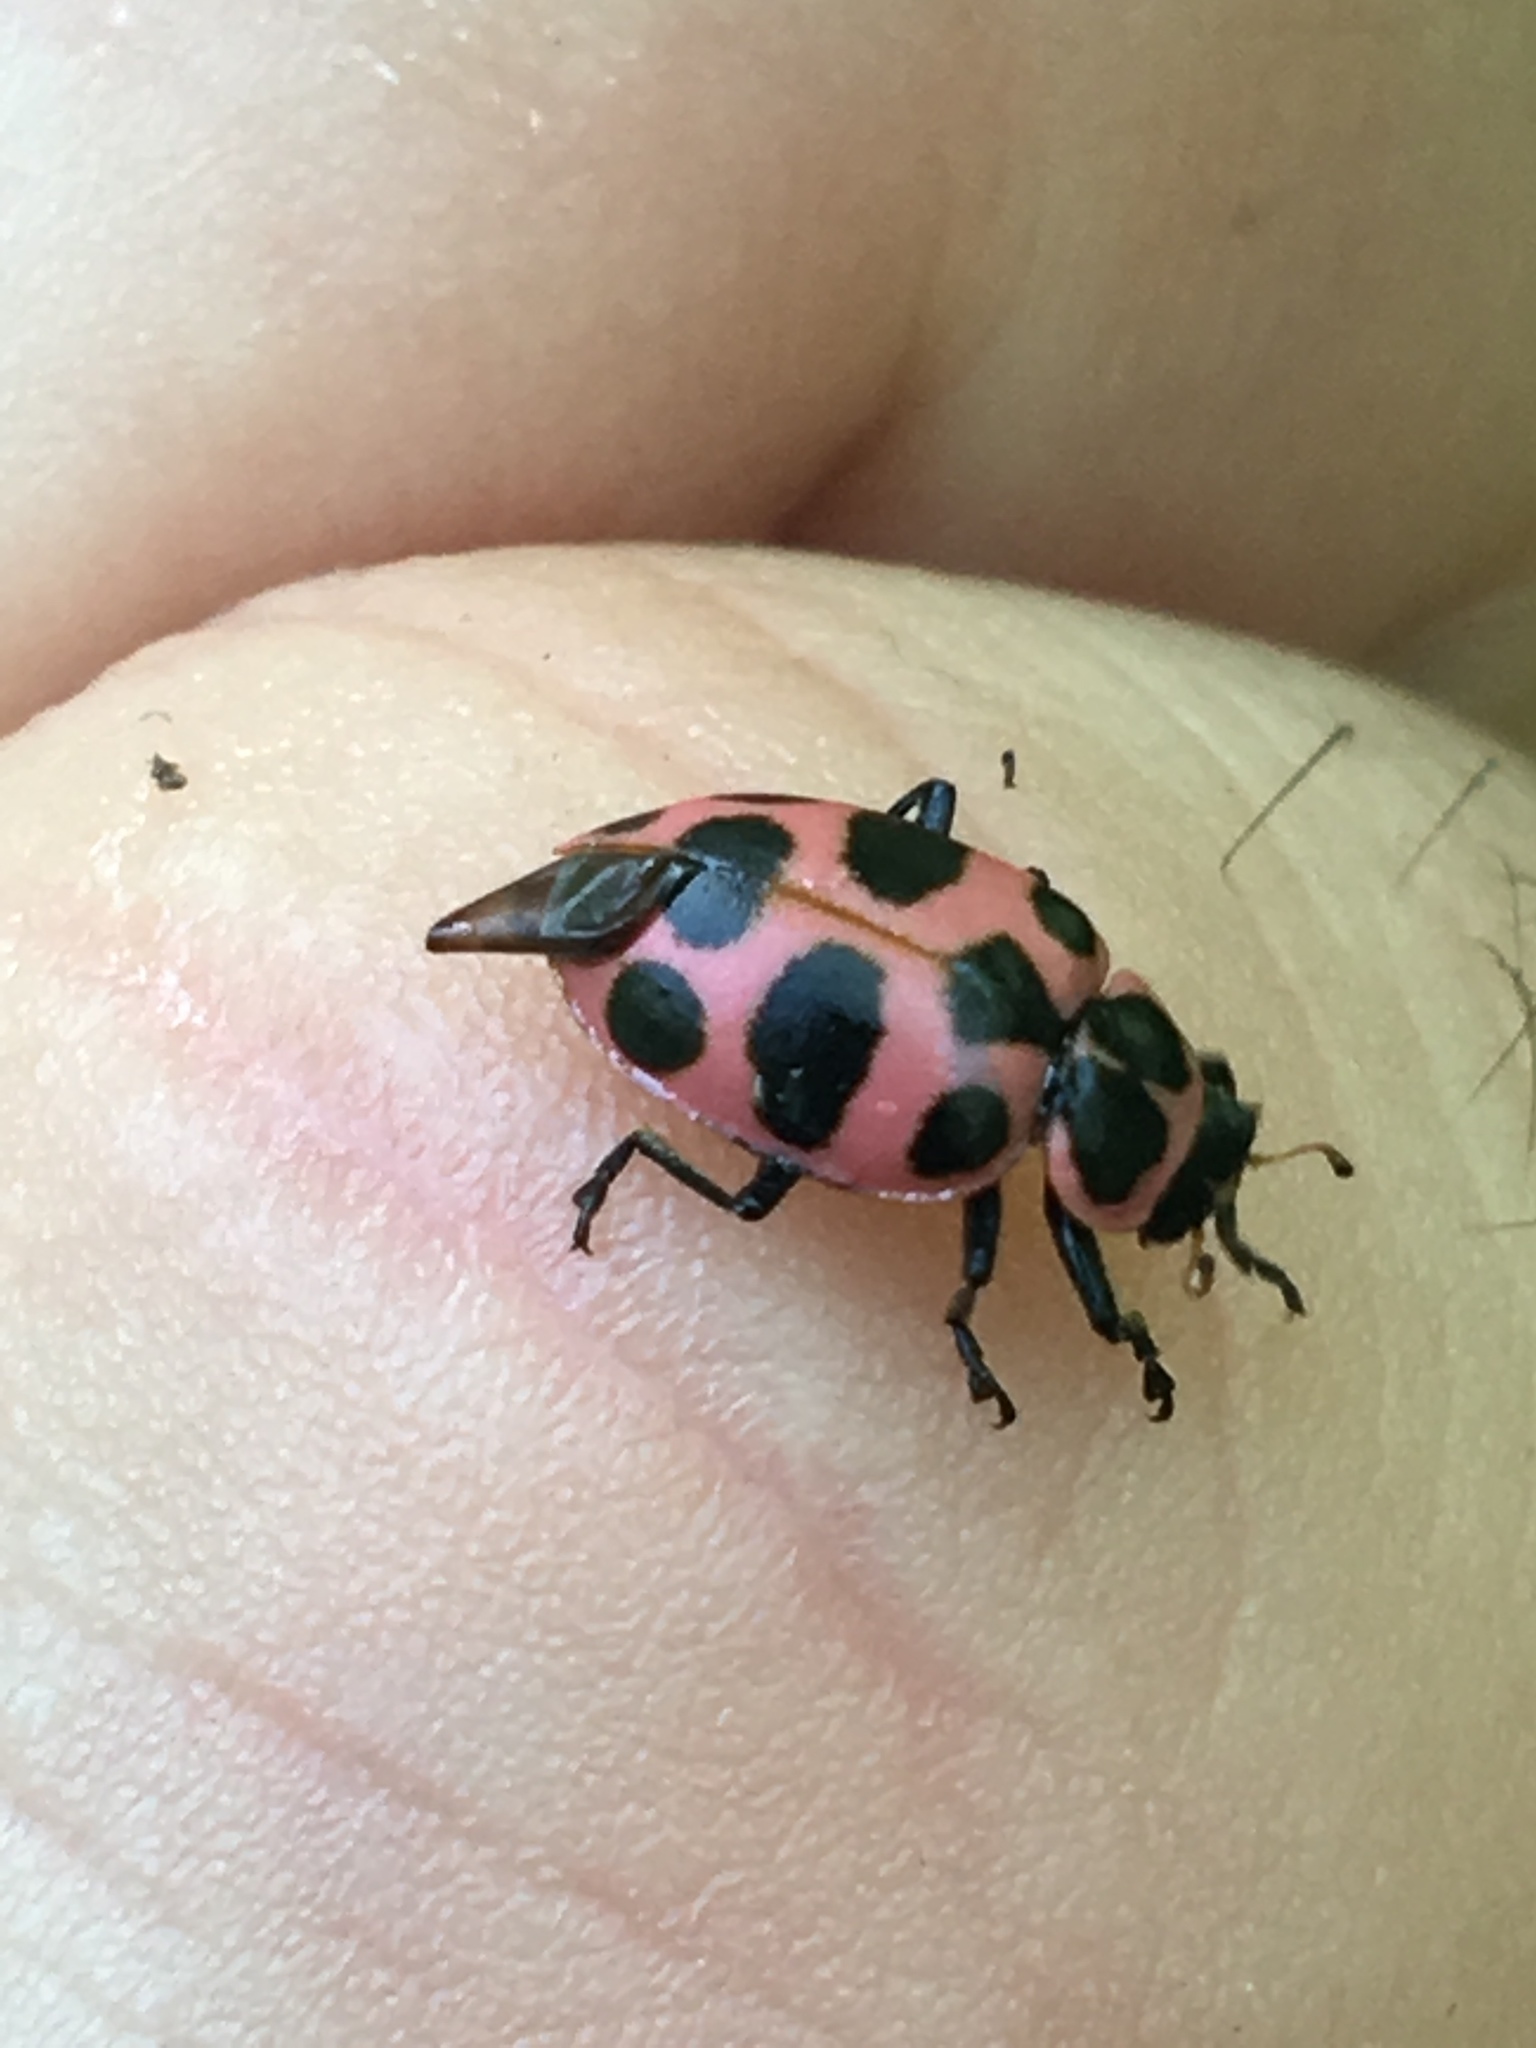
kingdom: Animalia
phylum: Arthropoda
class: Insecta
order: Coleoptera
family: Coccinellidae
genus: Coleomegilla
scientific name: Coleomegilla maculata
